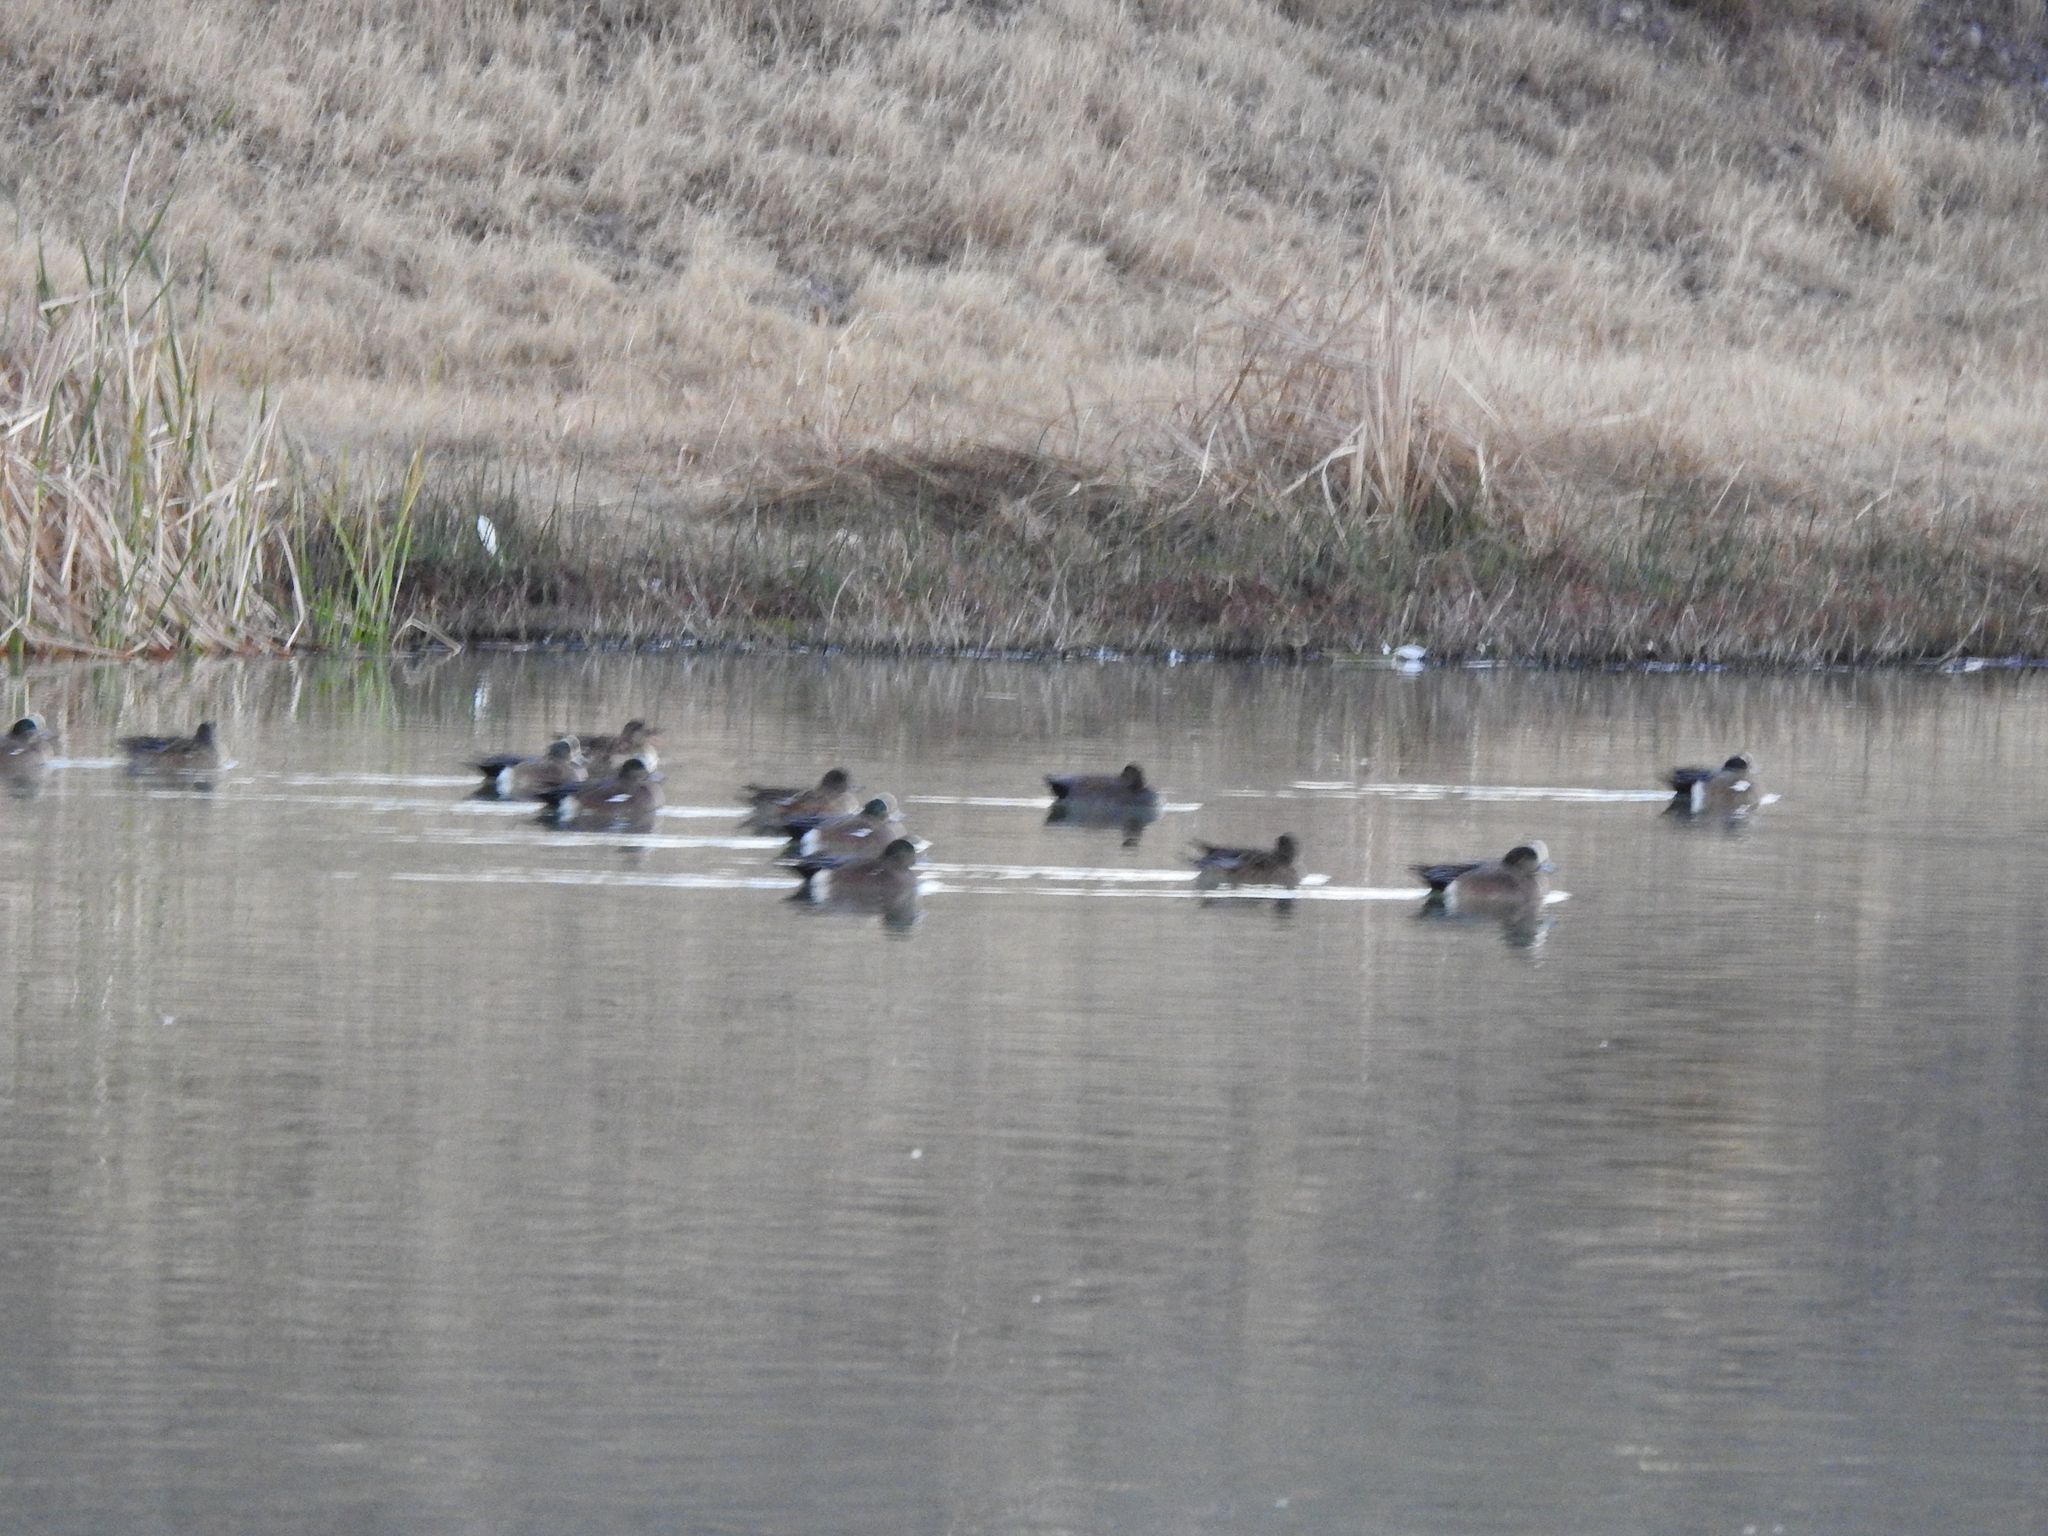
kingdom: Animalia
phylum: Chordata
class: Aves
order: Anseriformes
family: Anatidae
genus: Mareca
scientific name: Mareca americana
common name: American wigeon
